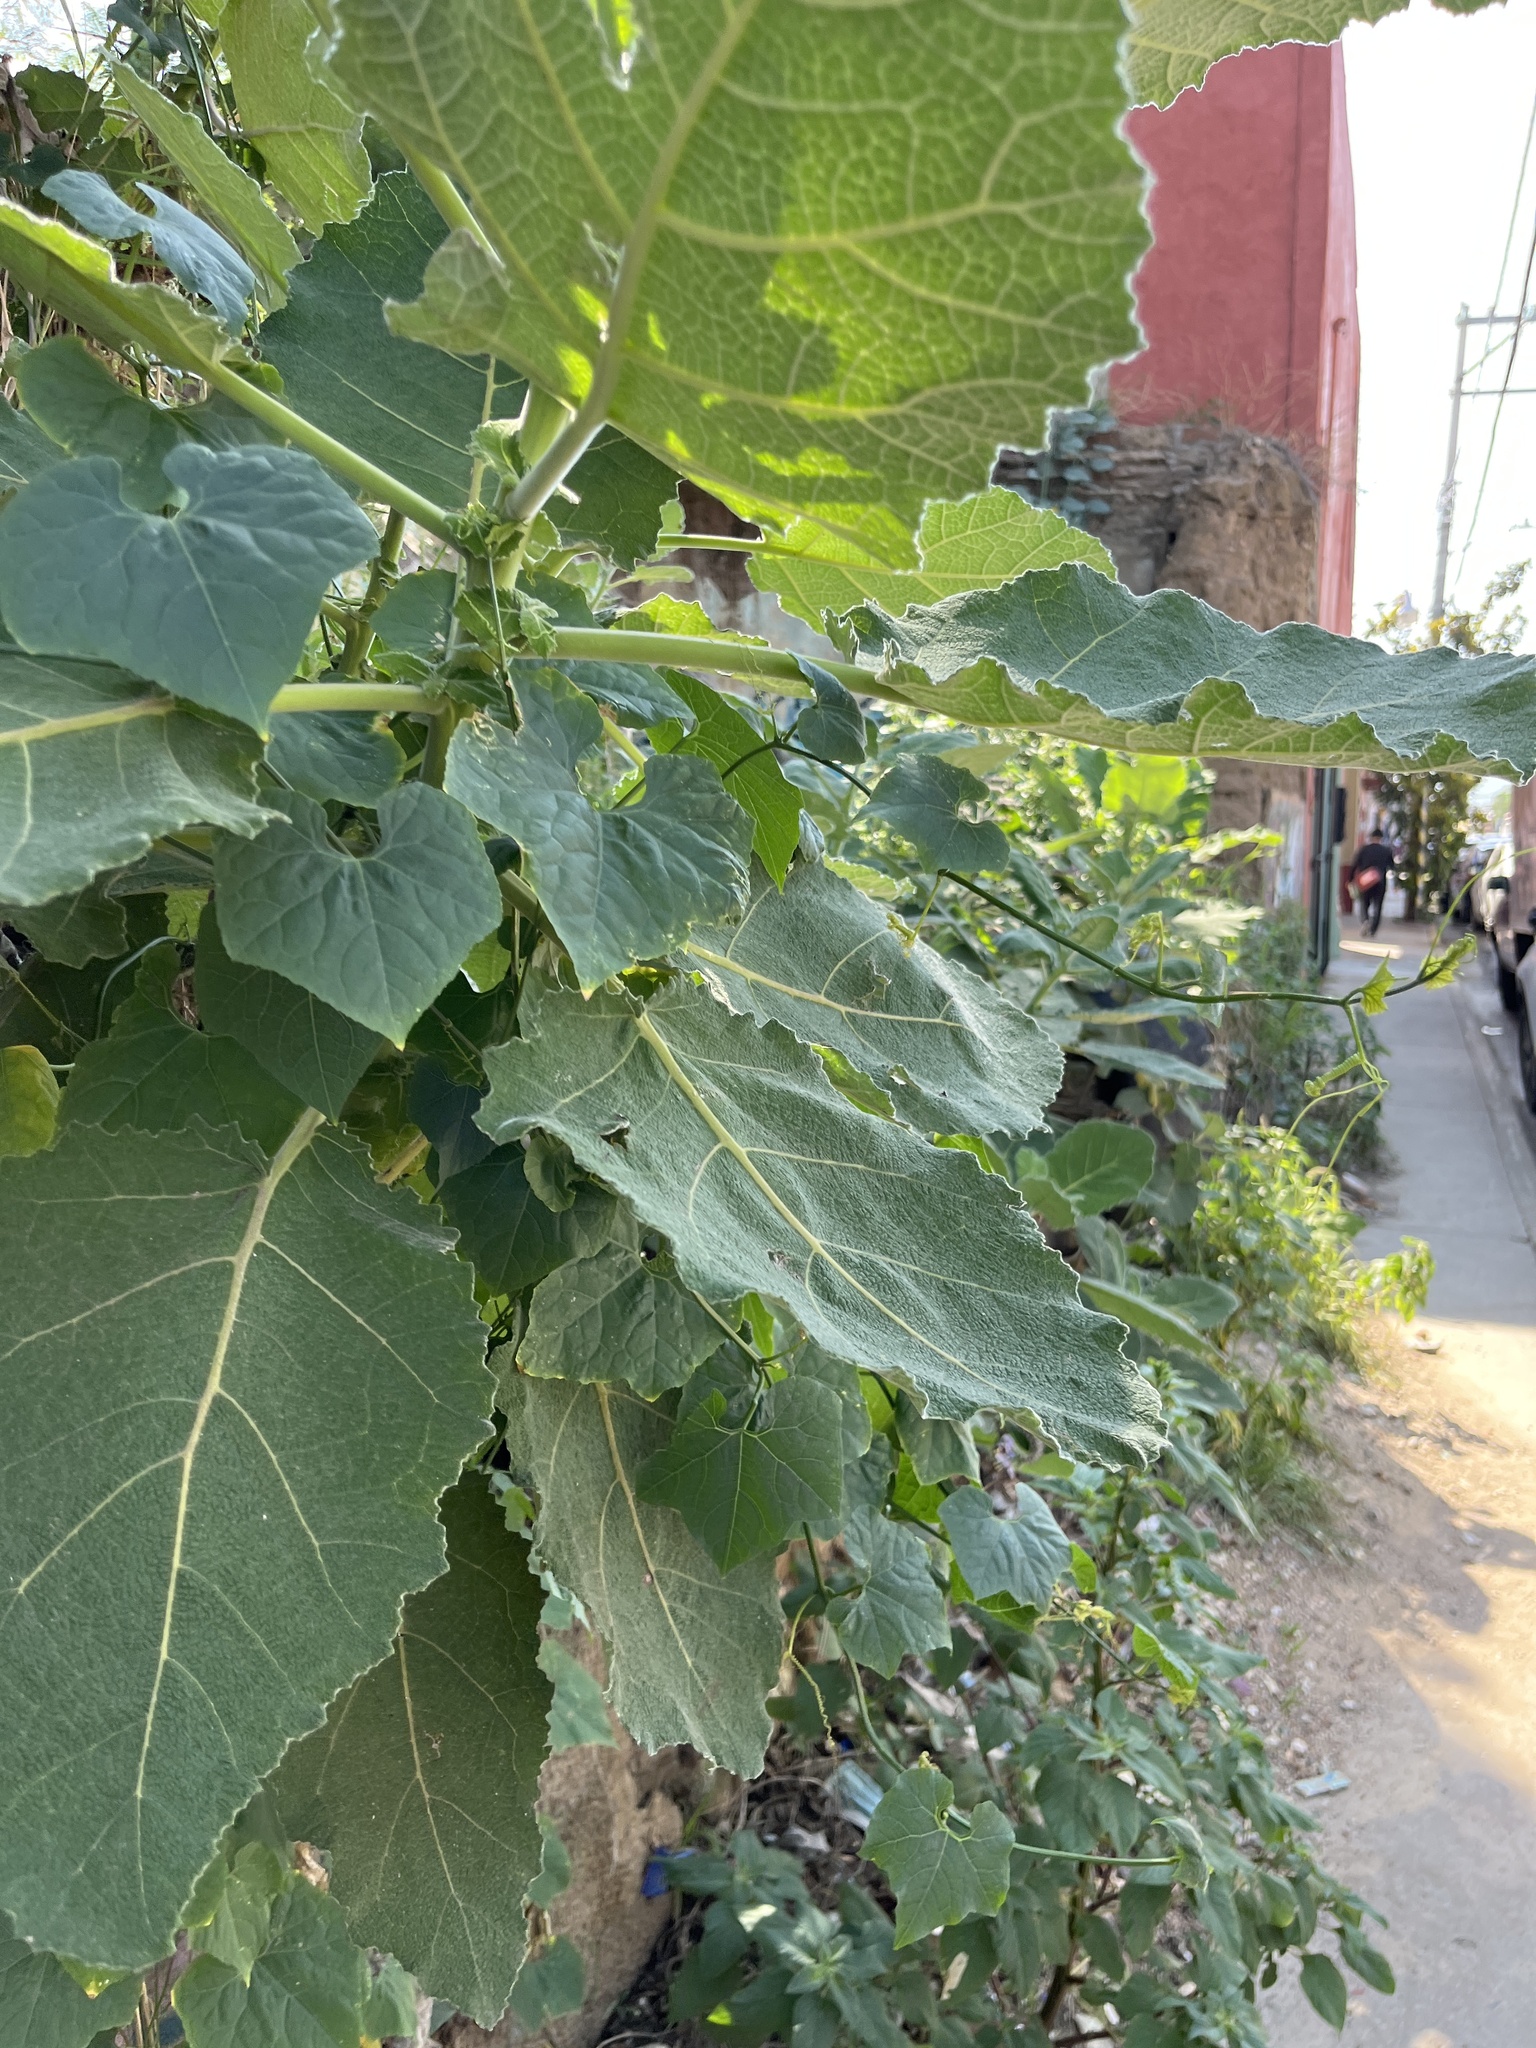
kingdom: Plantae
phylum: Tracheophyta
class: Magnoliopsida
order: Boraginales
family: Namaceae
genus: Wigandia
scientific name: Wigandia urens
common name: Caracus wigandia
